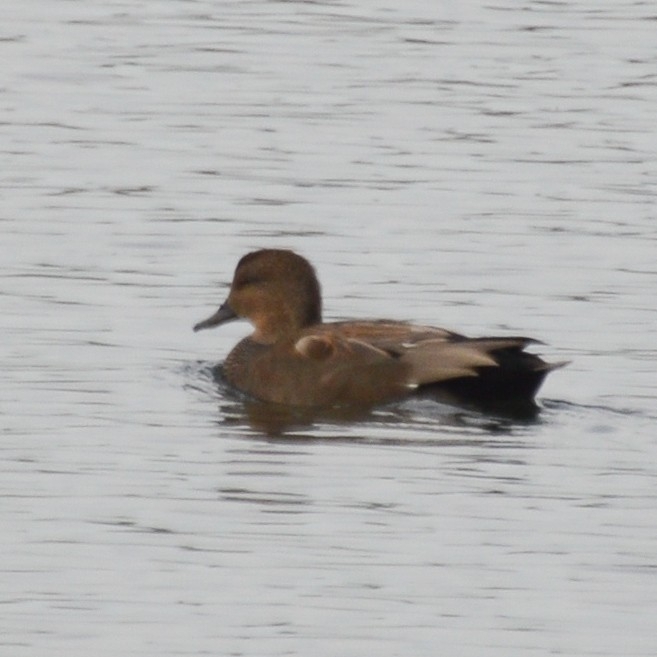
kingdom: Animalia
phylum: Chordata
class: Aves
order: Anseriformes
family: Anatidae
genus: Mareca
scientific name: Mareca strepera
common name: Gadwall
